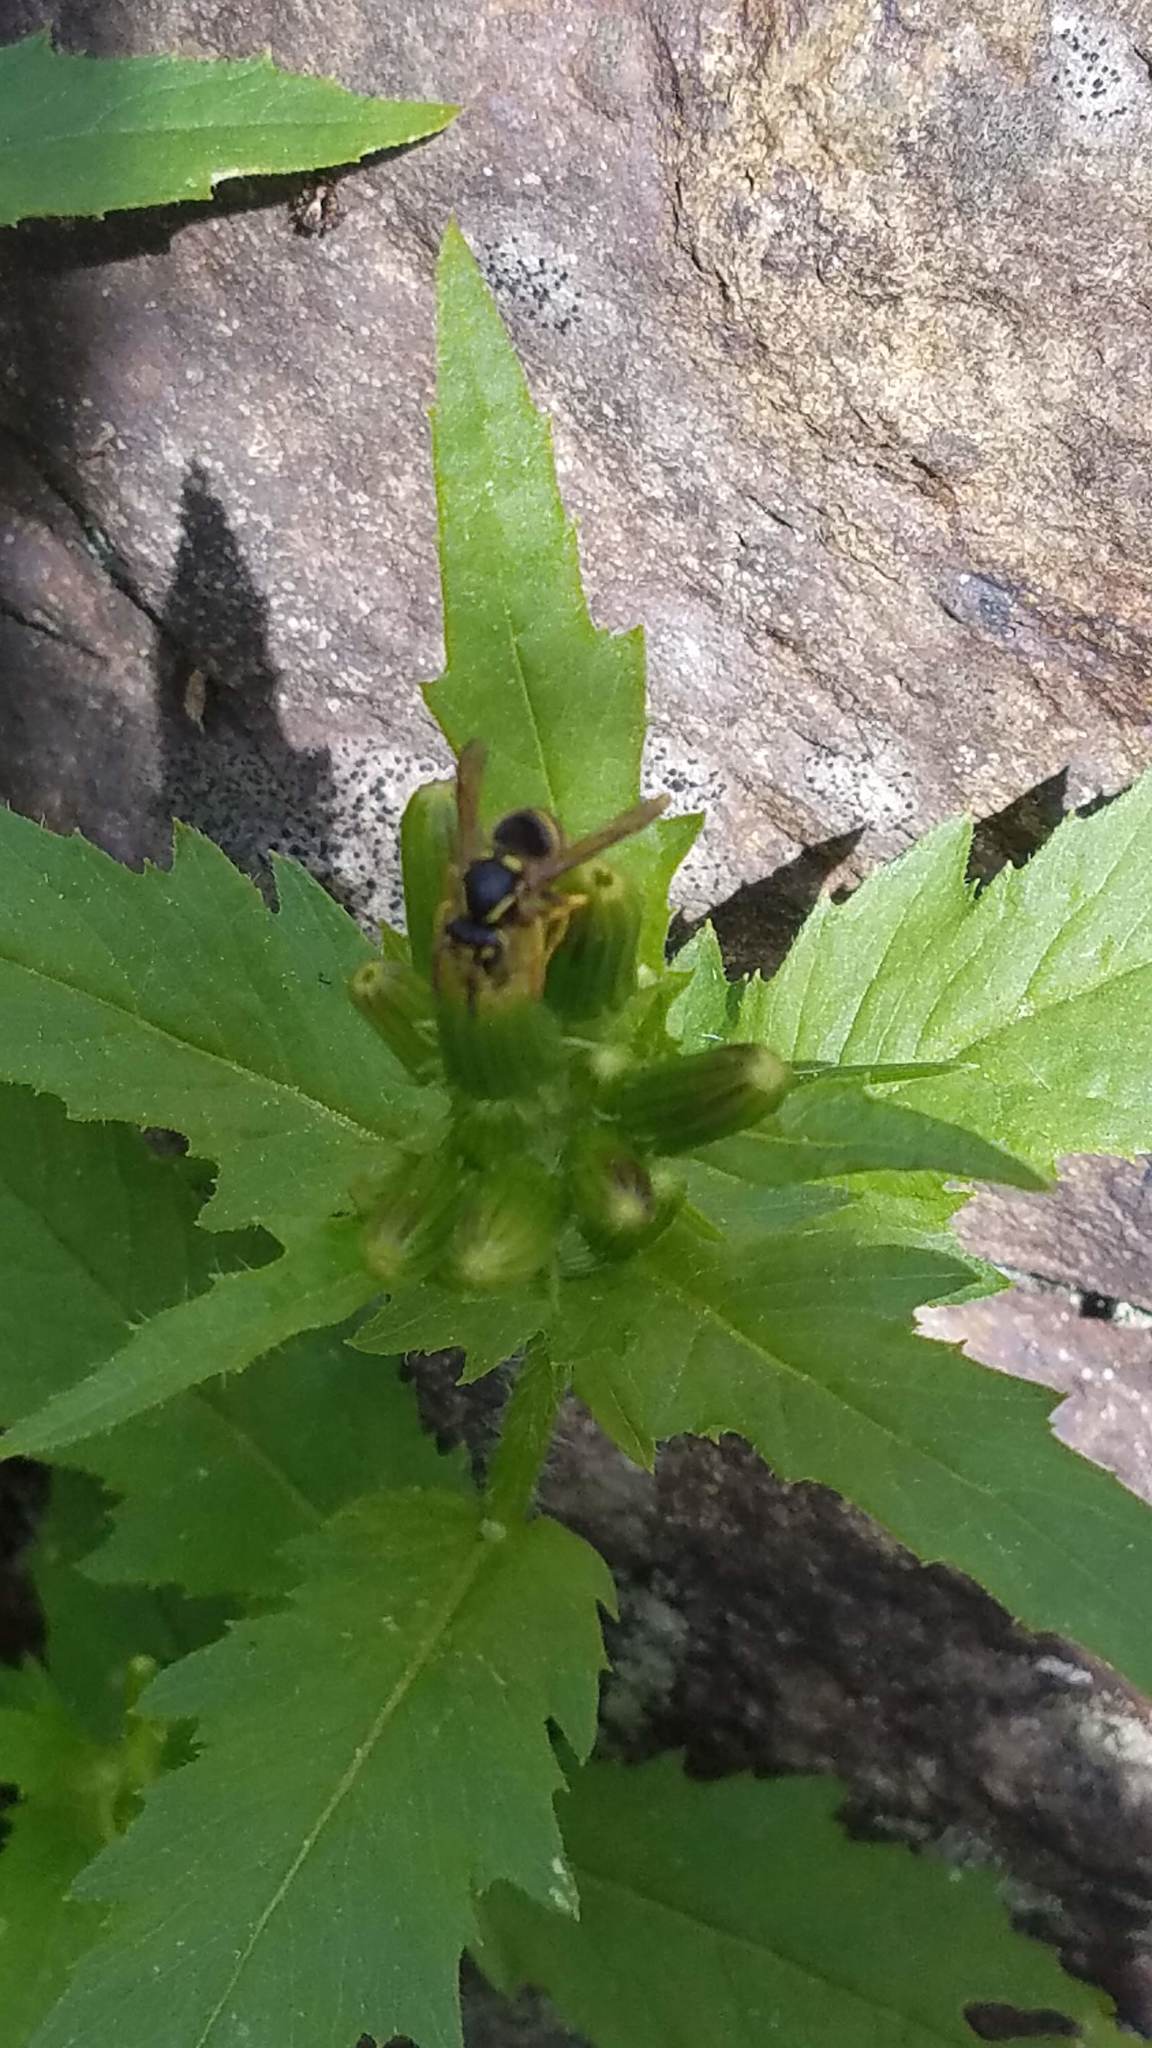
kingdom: Animalia
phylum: Arthropoda
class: Insecta
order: Hymenoptera
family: Vespidae
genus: Dolichovespula
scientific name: Dolichovespula arenaria
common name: Aerial yellowjacket
